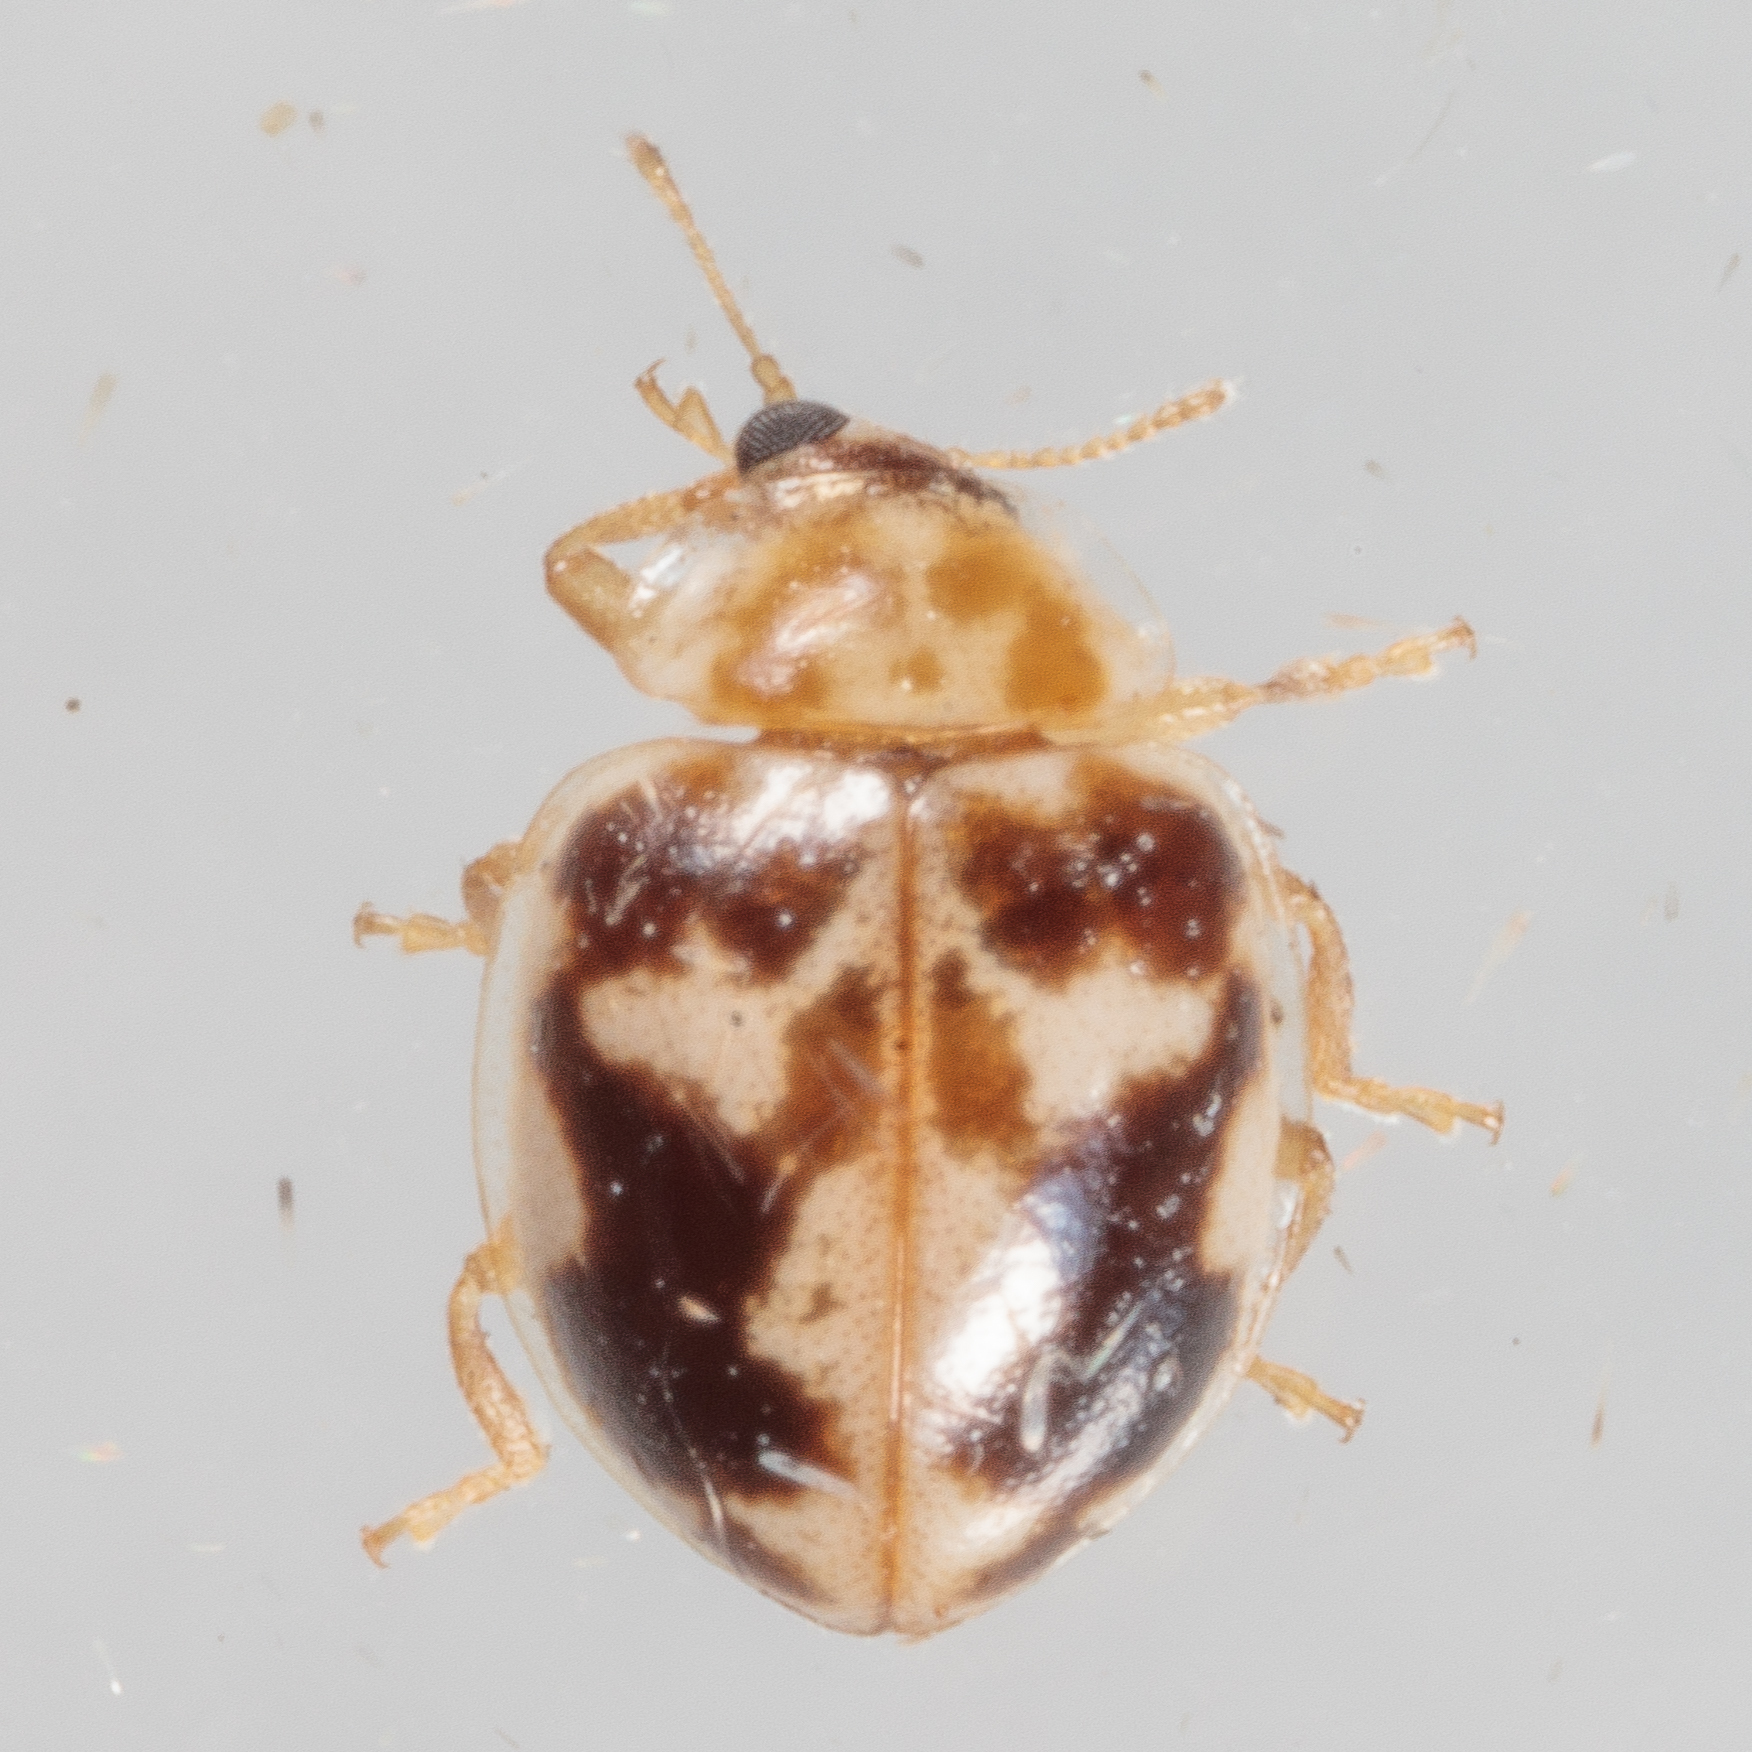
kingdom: Animalia
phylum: Arthropoda
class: Insecta
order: Coleoptera
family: Coccinellidae
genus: Psyllobora
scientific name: Psyllobora renifer
